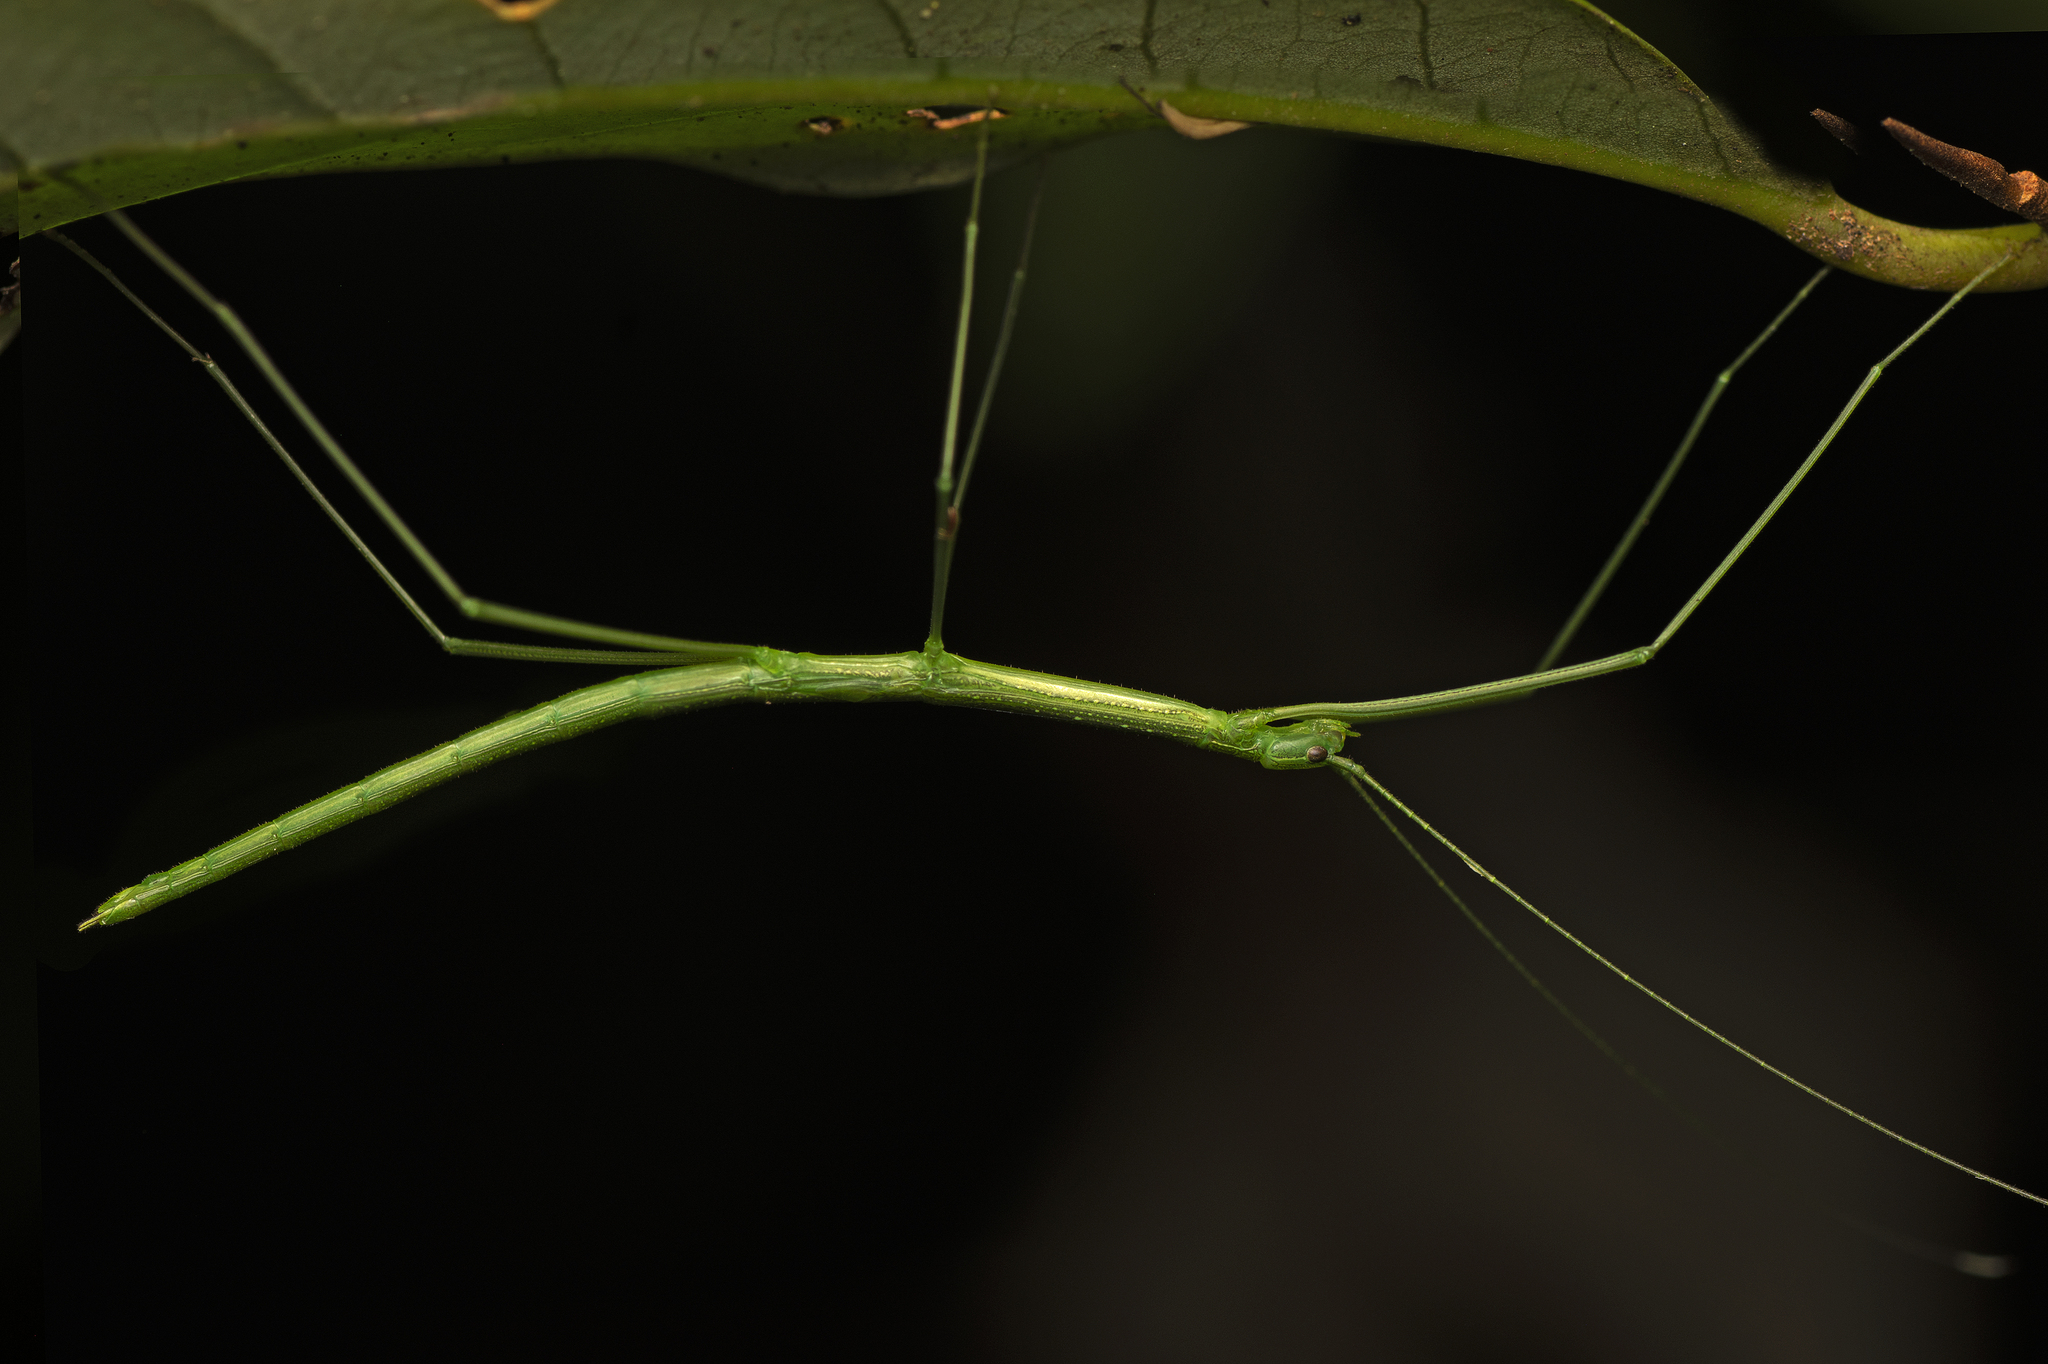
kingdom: Animalia
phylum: Arthropoda
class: Insecta
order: Phasmida
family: Lonchodidae
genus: Sipyloidea
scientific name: Sipyloidea rentzi
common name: Rentz's sipyloidea stick-insect
